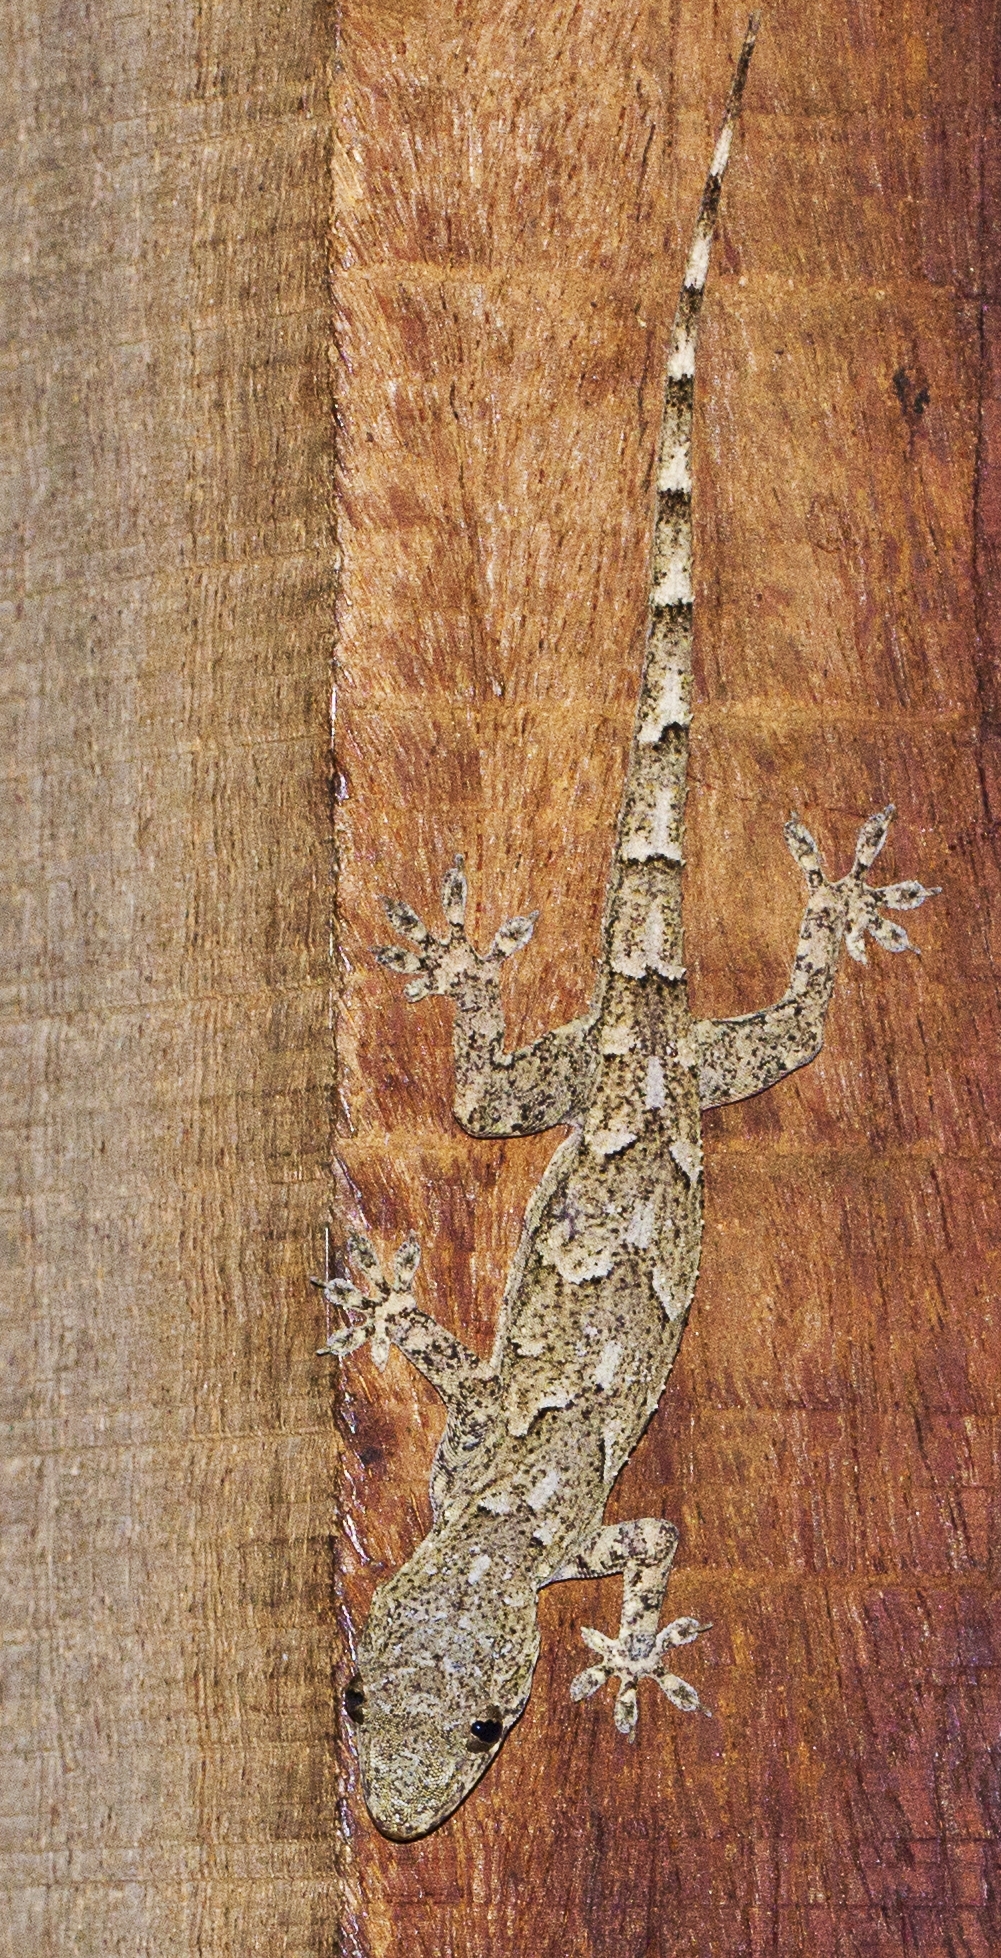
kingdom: Animalia
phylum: Chordata
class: Squamata
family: Gekkonidae
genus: Hemidactylus
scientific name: Hemidactylus platycephalus
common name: Baobab gecko
